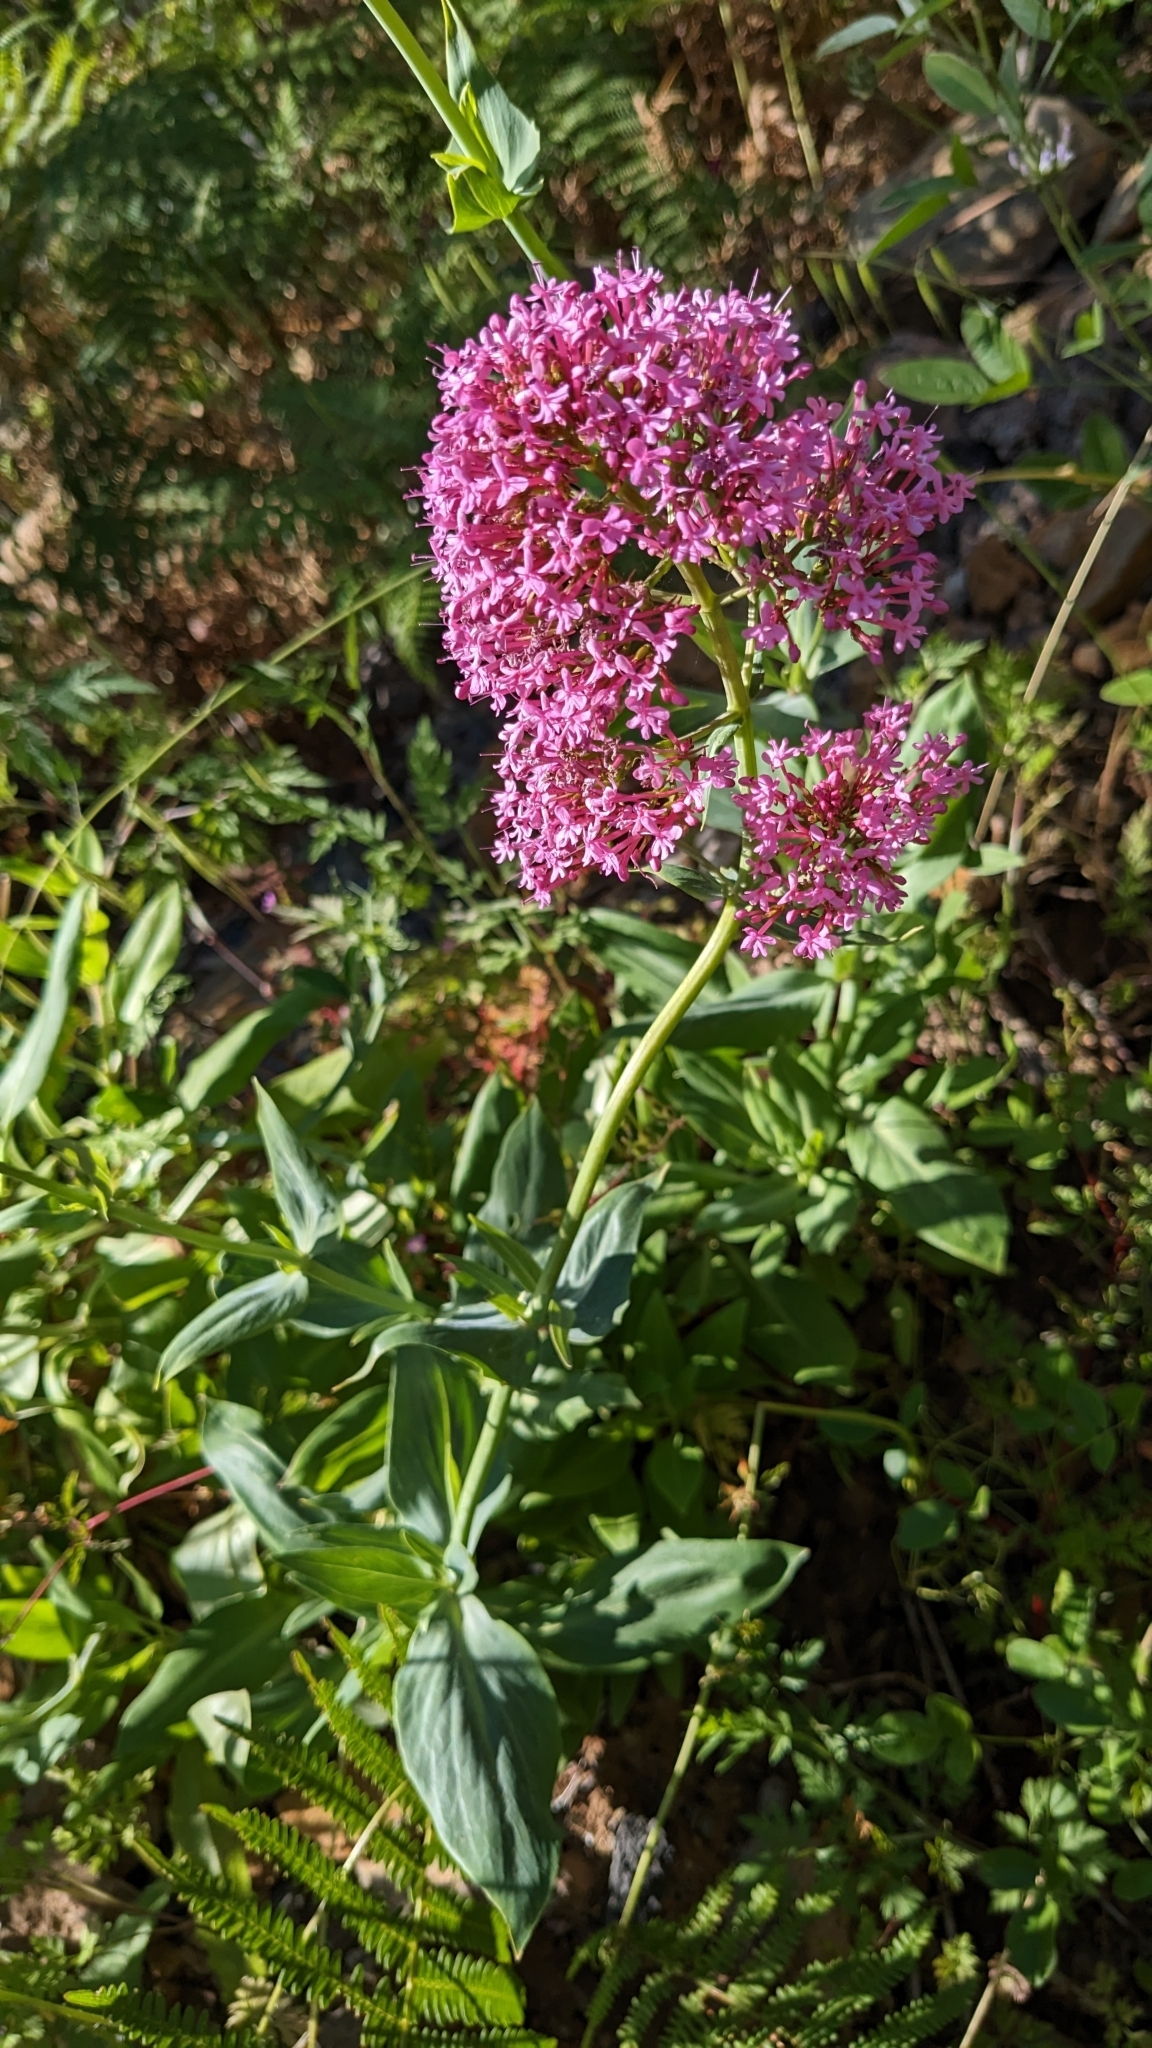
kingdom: Plantae
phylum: Tracheophyta
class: Magnoliopsida
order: Dipsacales
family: Caprifoliaceae
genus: Centranthus
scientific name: Centranthus ruber
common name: Red valerian
